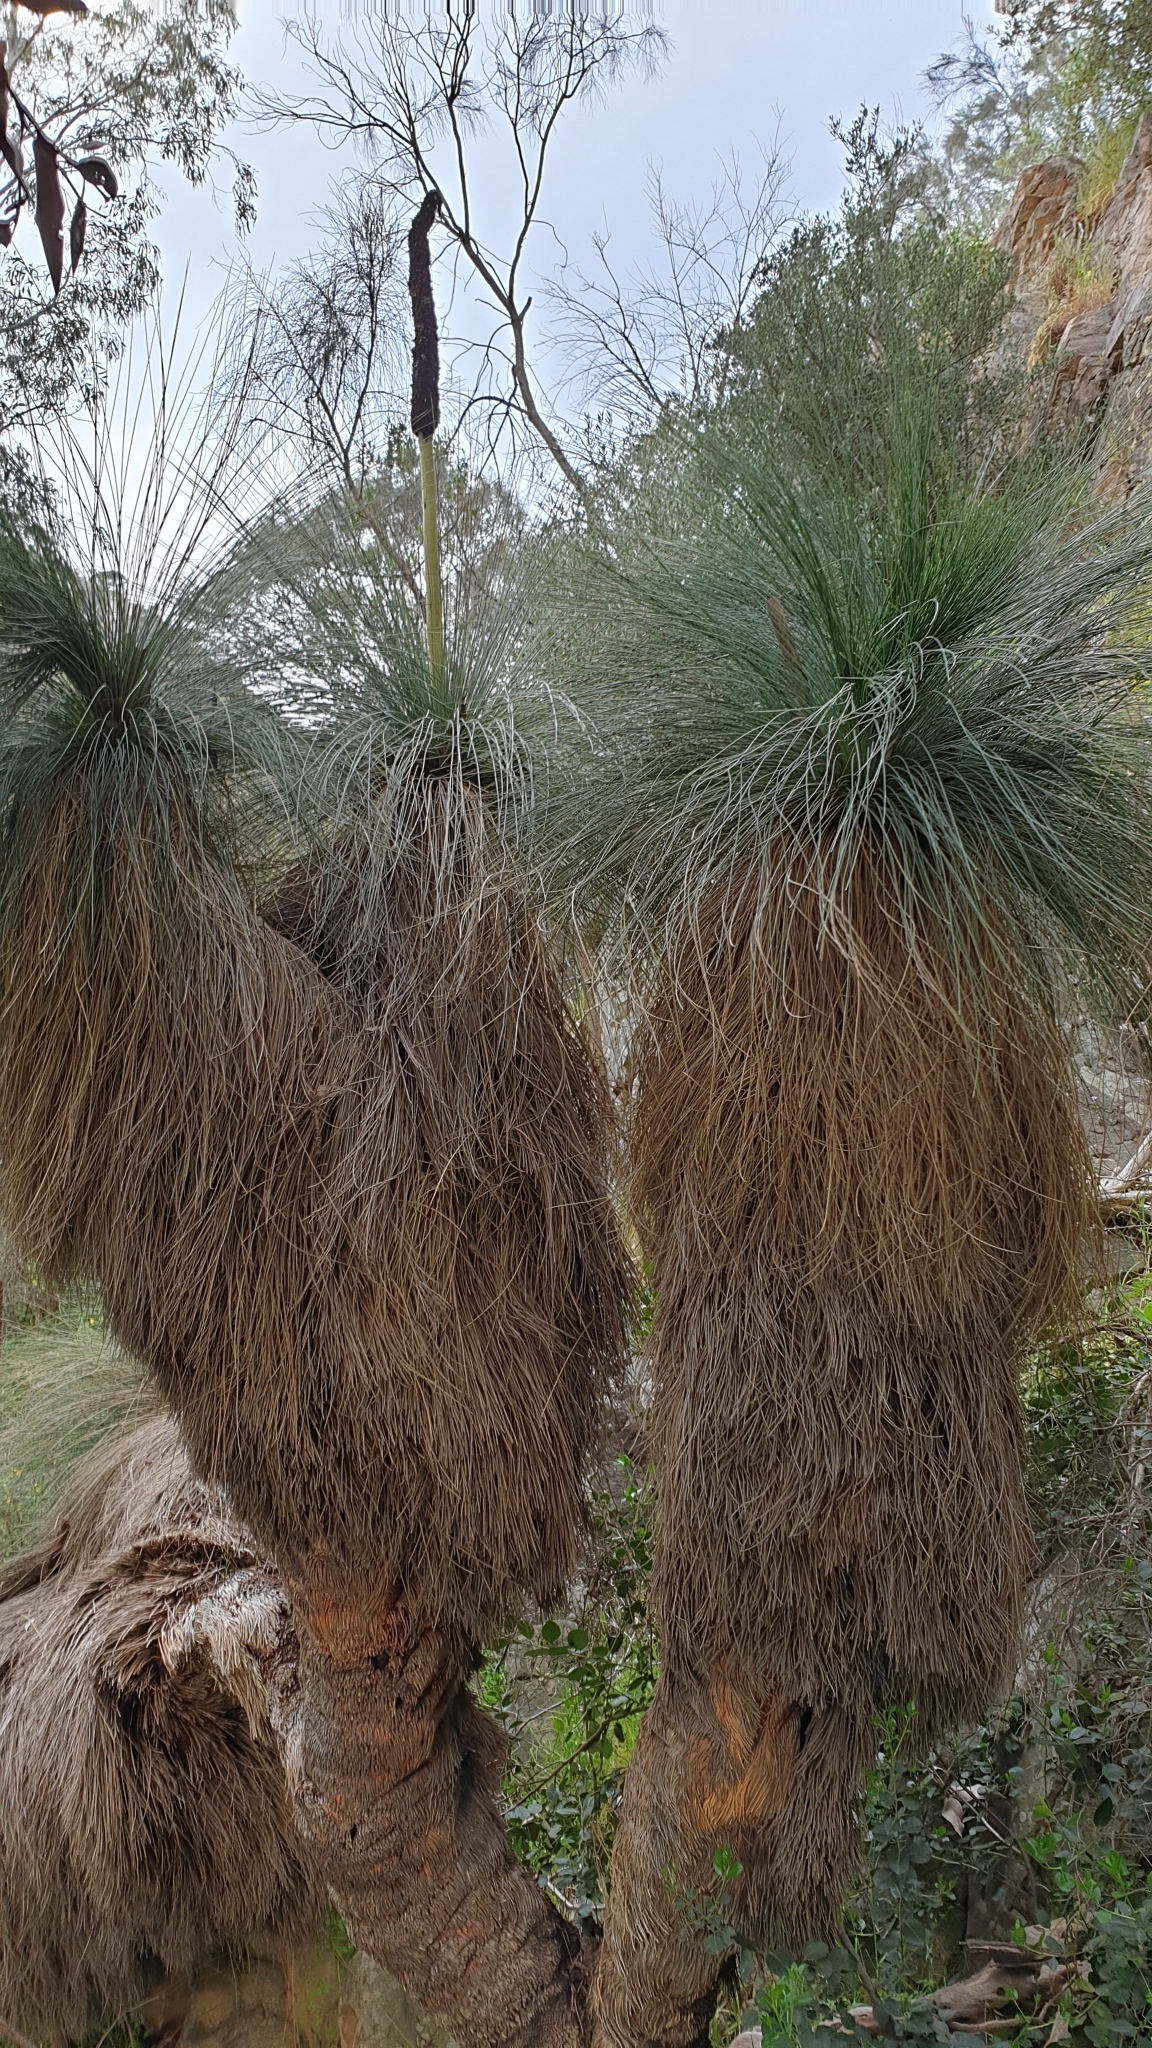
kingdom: Plantae
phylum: Tracheophyta
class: Liliopsida
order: Asparagales
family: Asphodelaceae
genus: Xanthorrhoea
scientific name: Xanthorrhoea quadrangulata
